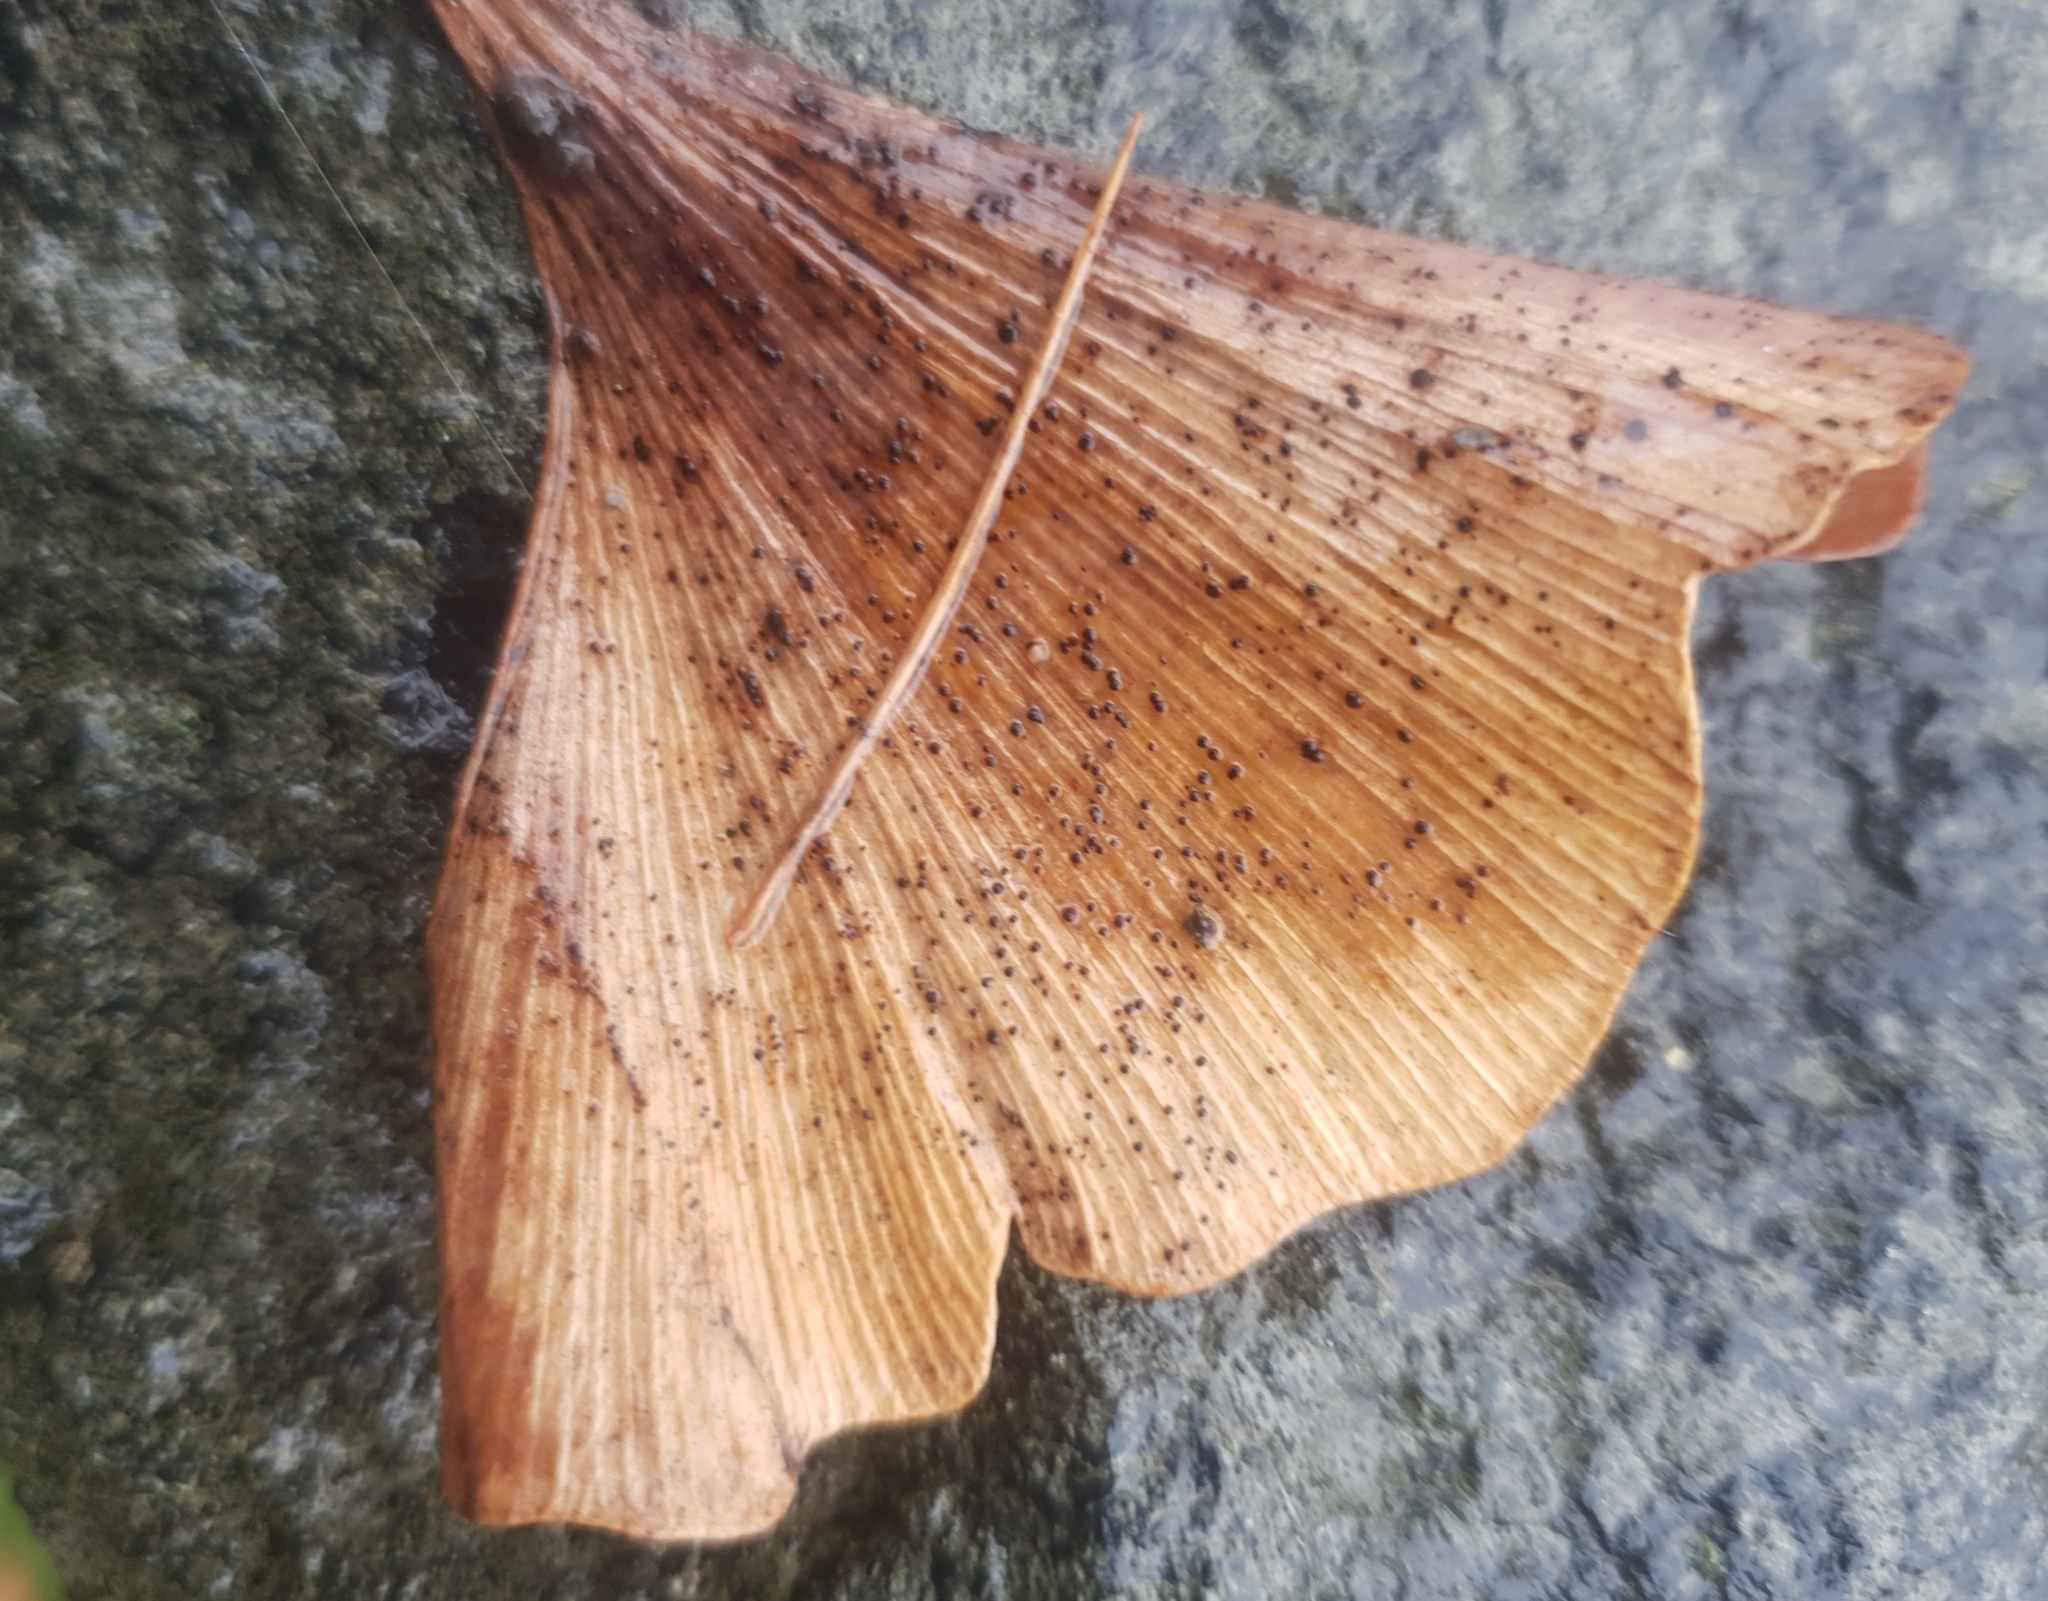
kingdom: Fungi
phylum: Basidiomycota
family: Bartheletiaceae
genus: Bartheletia
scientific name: Bartheletia paradoxa
